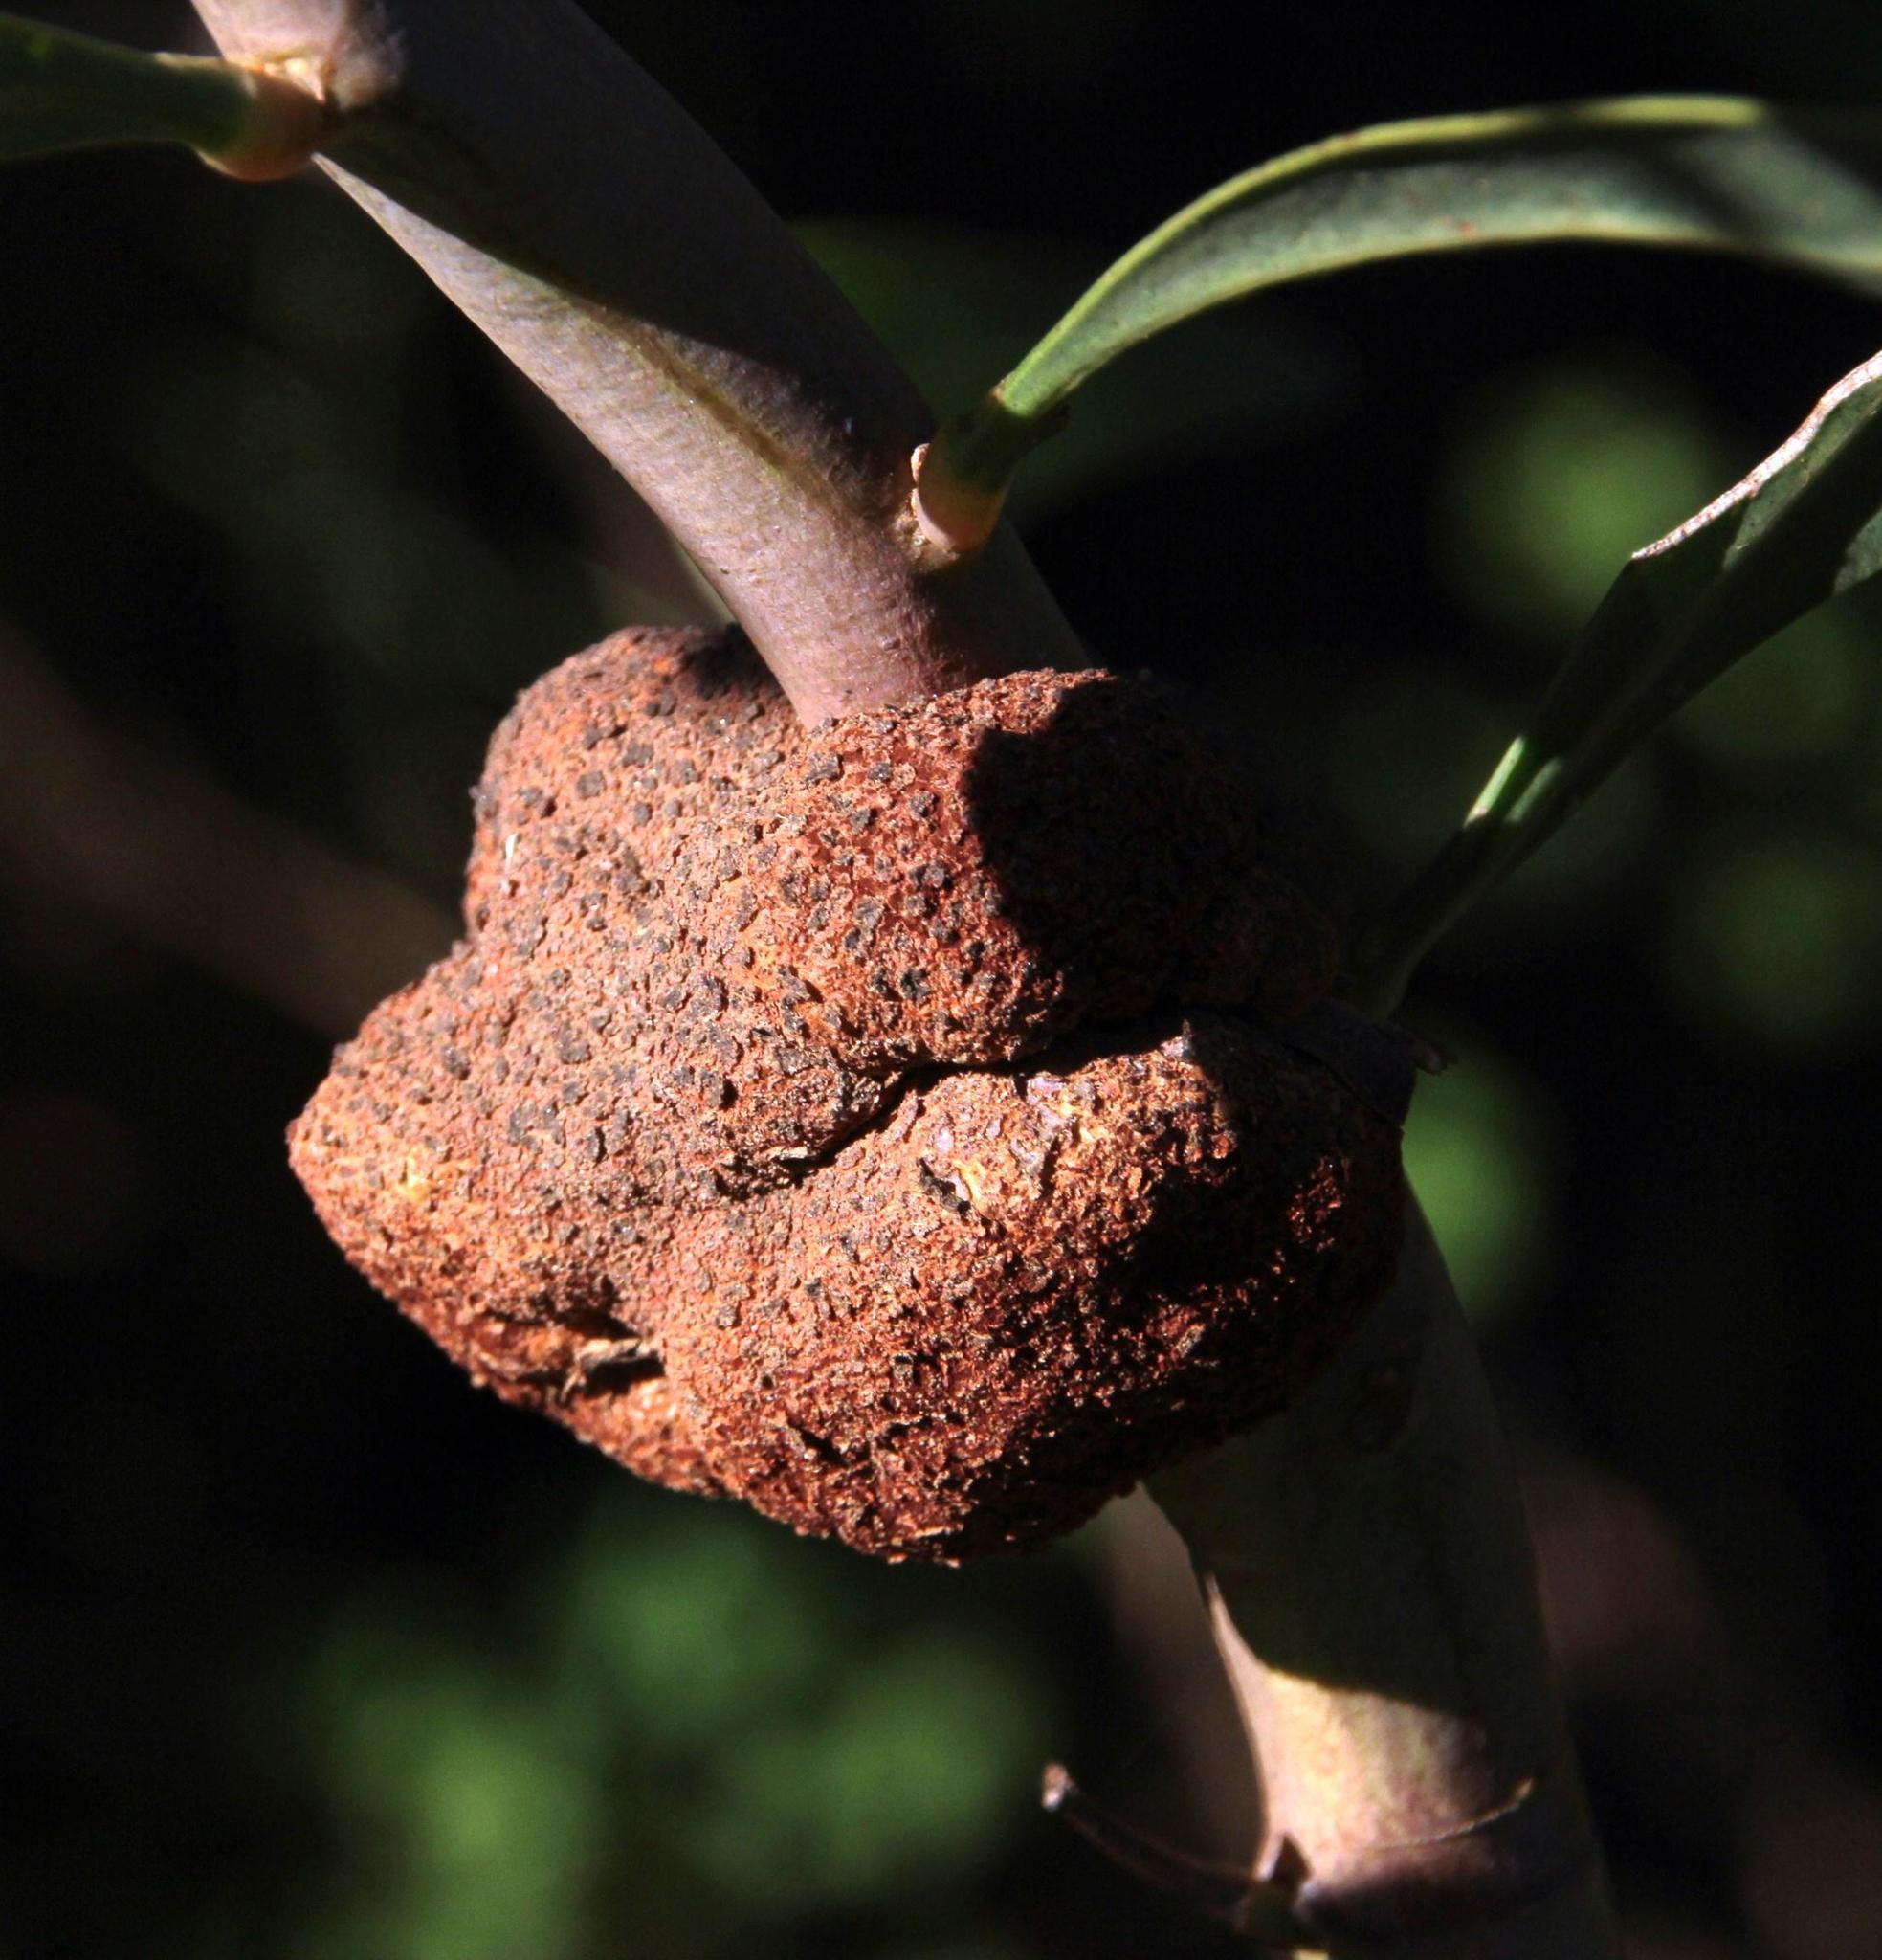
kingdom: Fungi
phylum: Basidiomycota
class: Pucciniomycetes
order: Pucciniales
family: Uromycladiaceae
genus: Uromycladium
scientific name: Uromycladium morrisii
